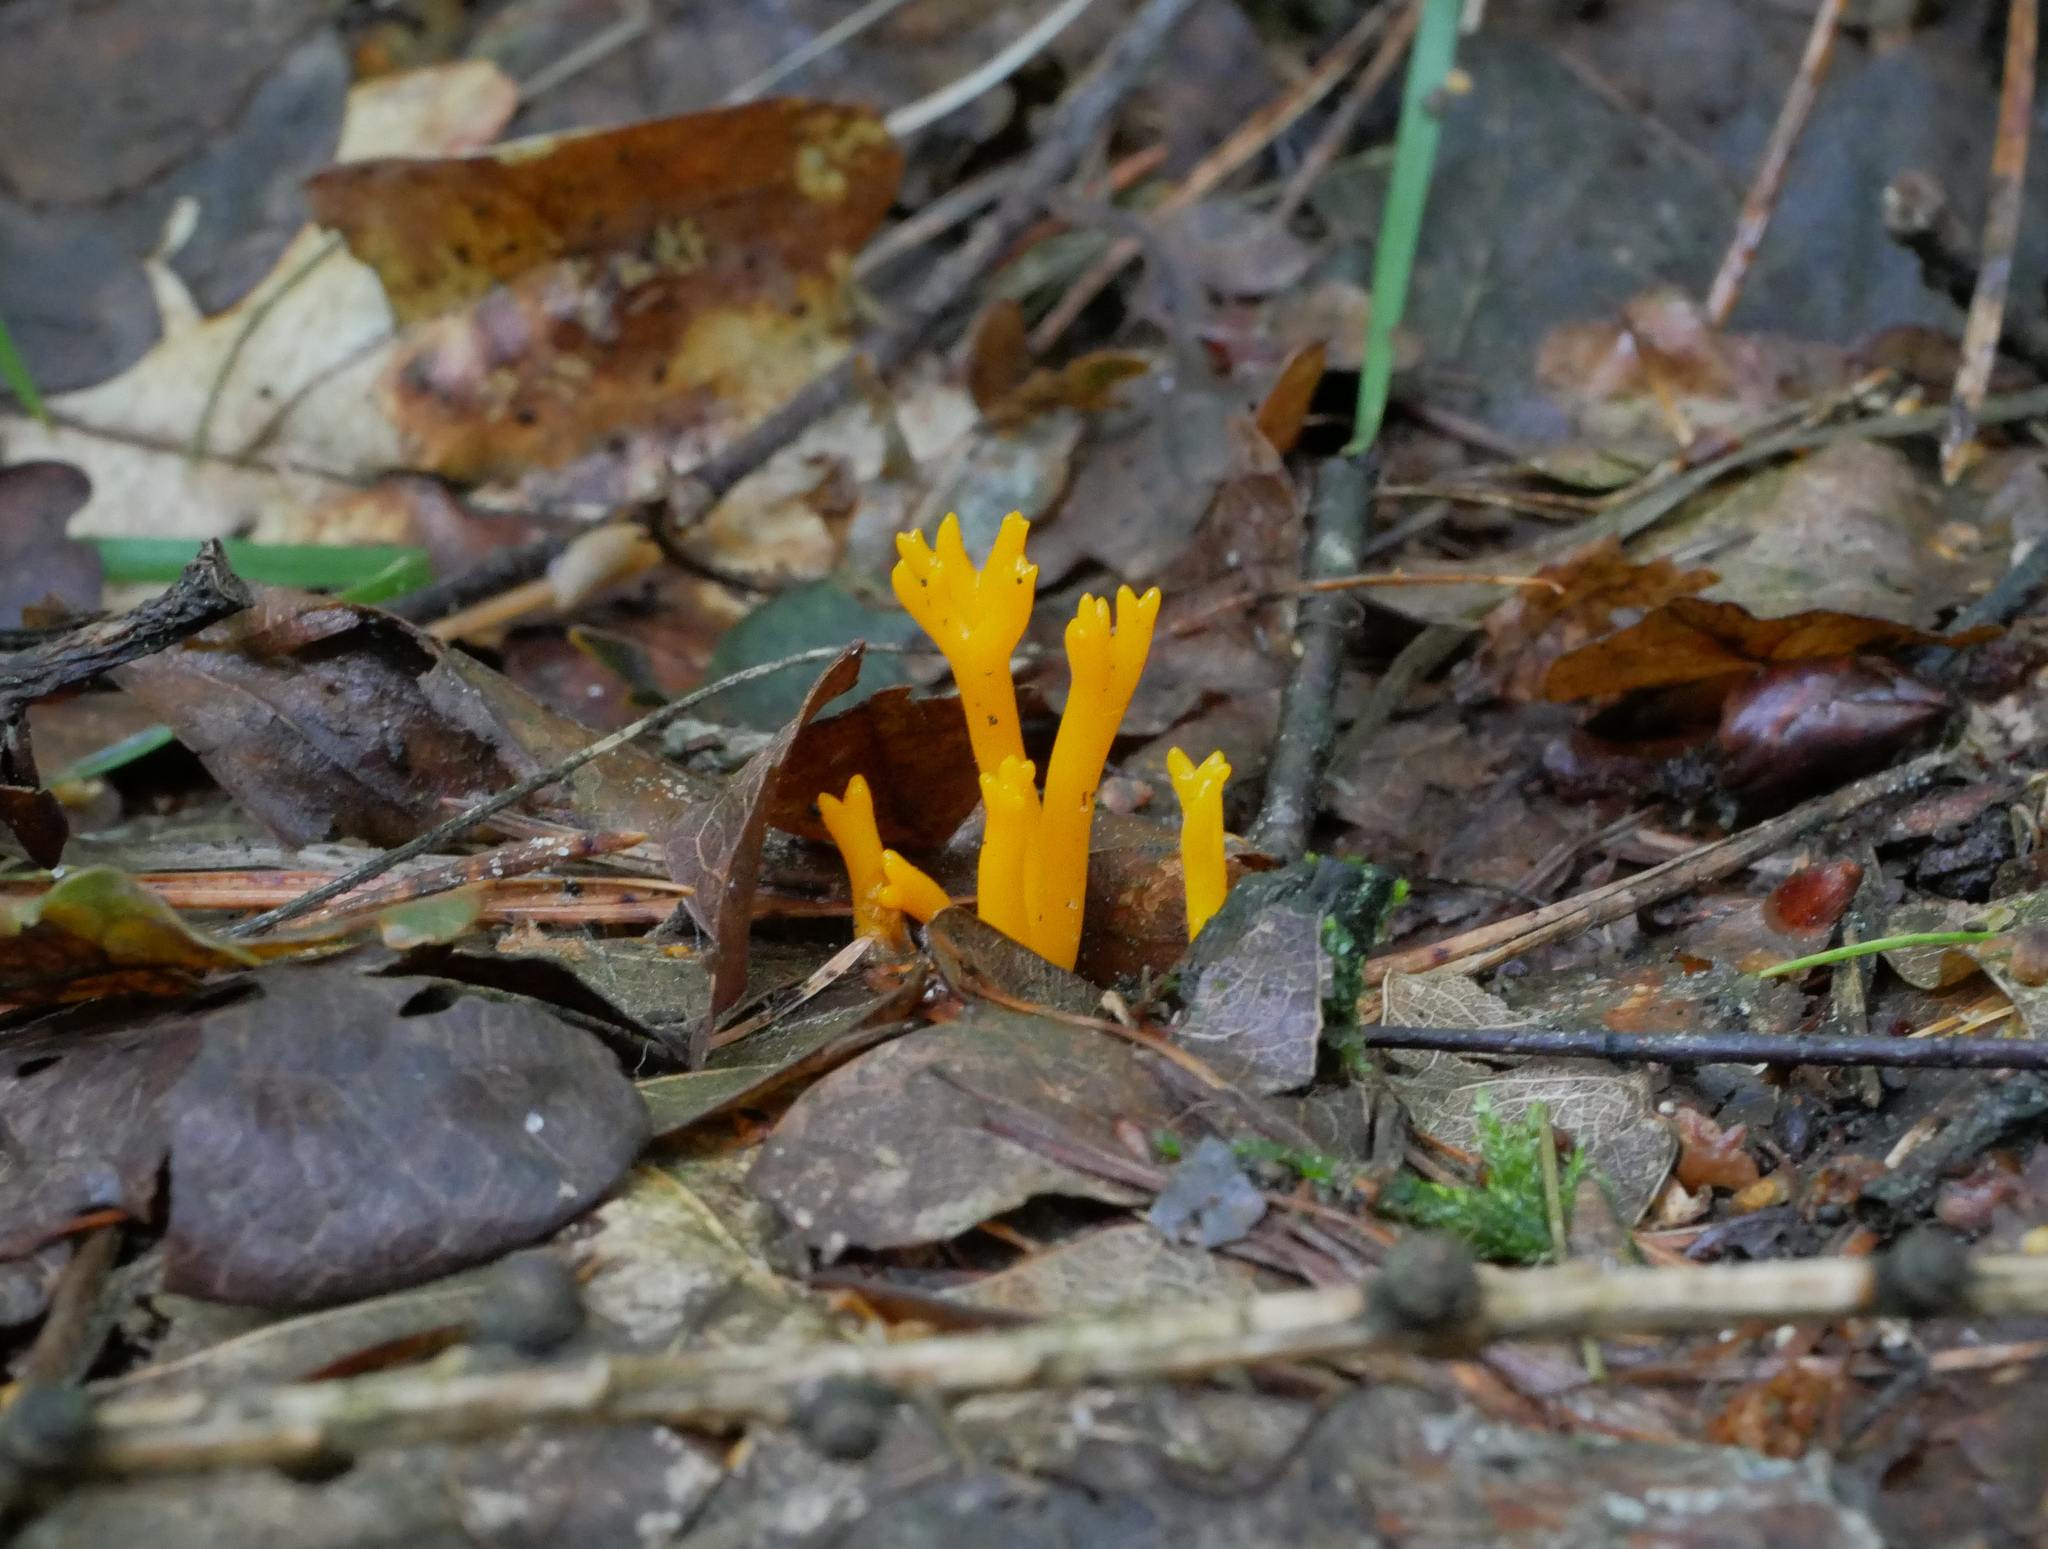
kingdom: Fungi
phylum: Basidiomycota
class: Dacrymycetes
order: Dacrymycetales
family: Dacrymycetaceae
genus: Calocera
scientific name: Calocera viscosa
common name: Yellow stagshorn
